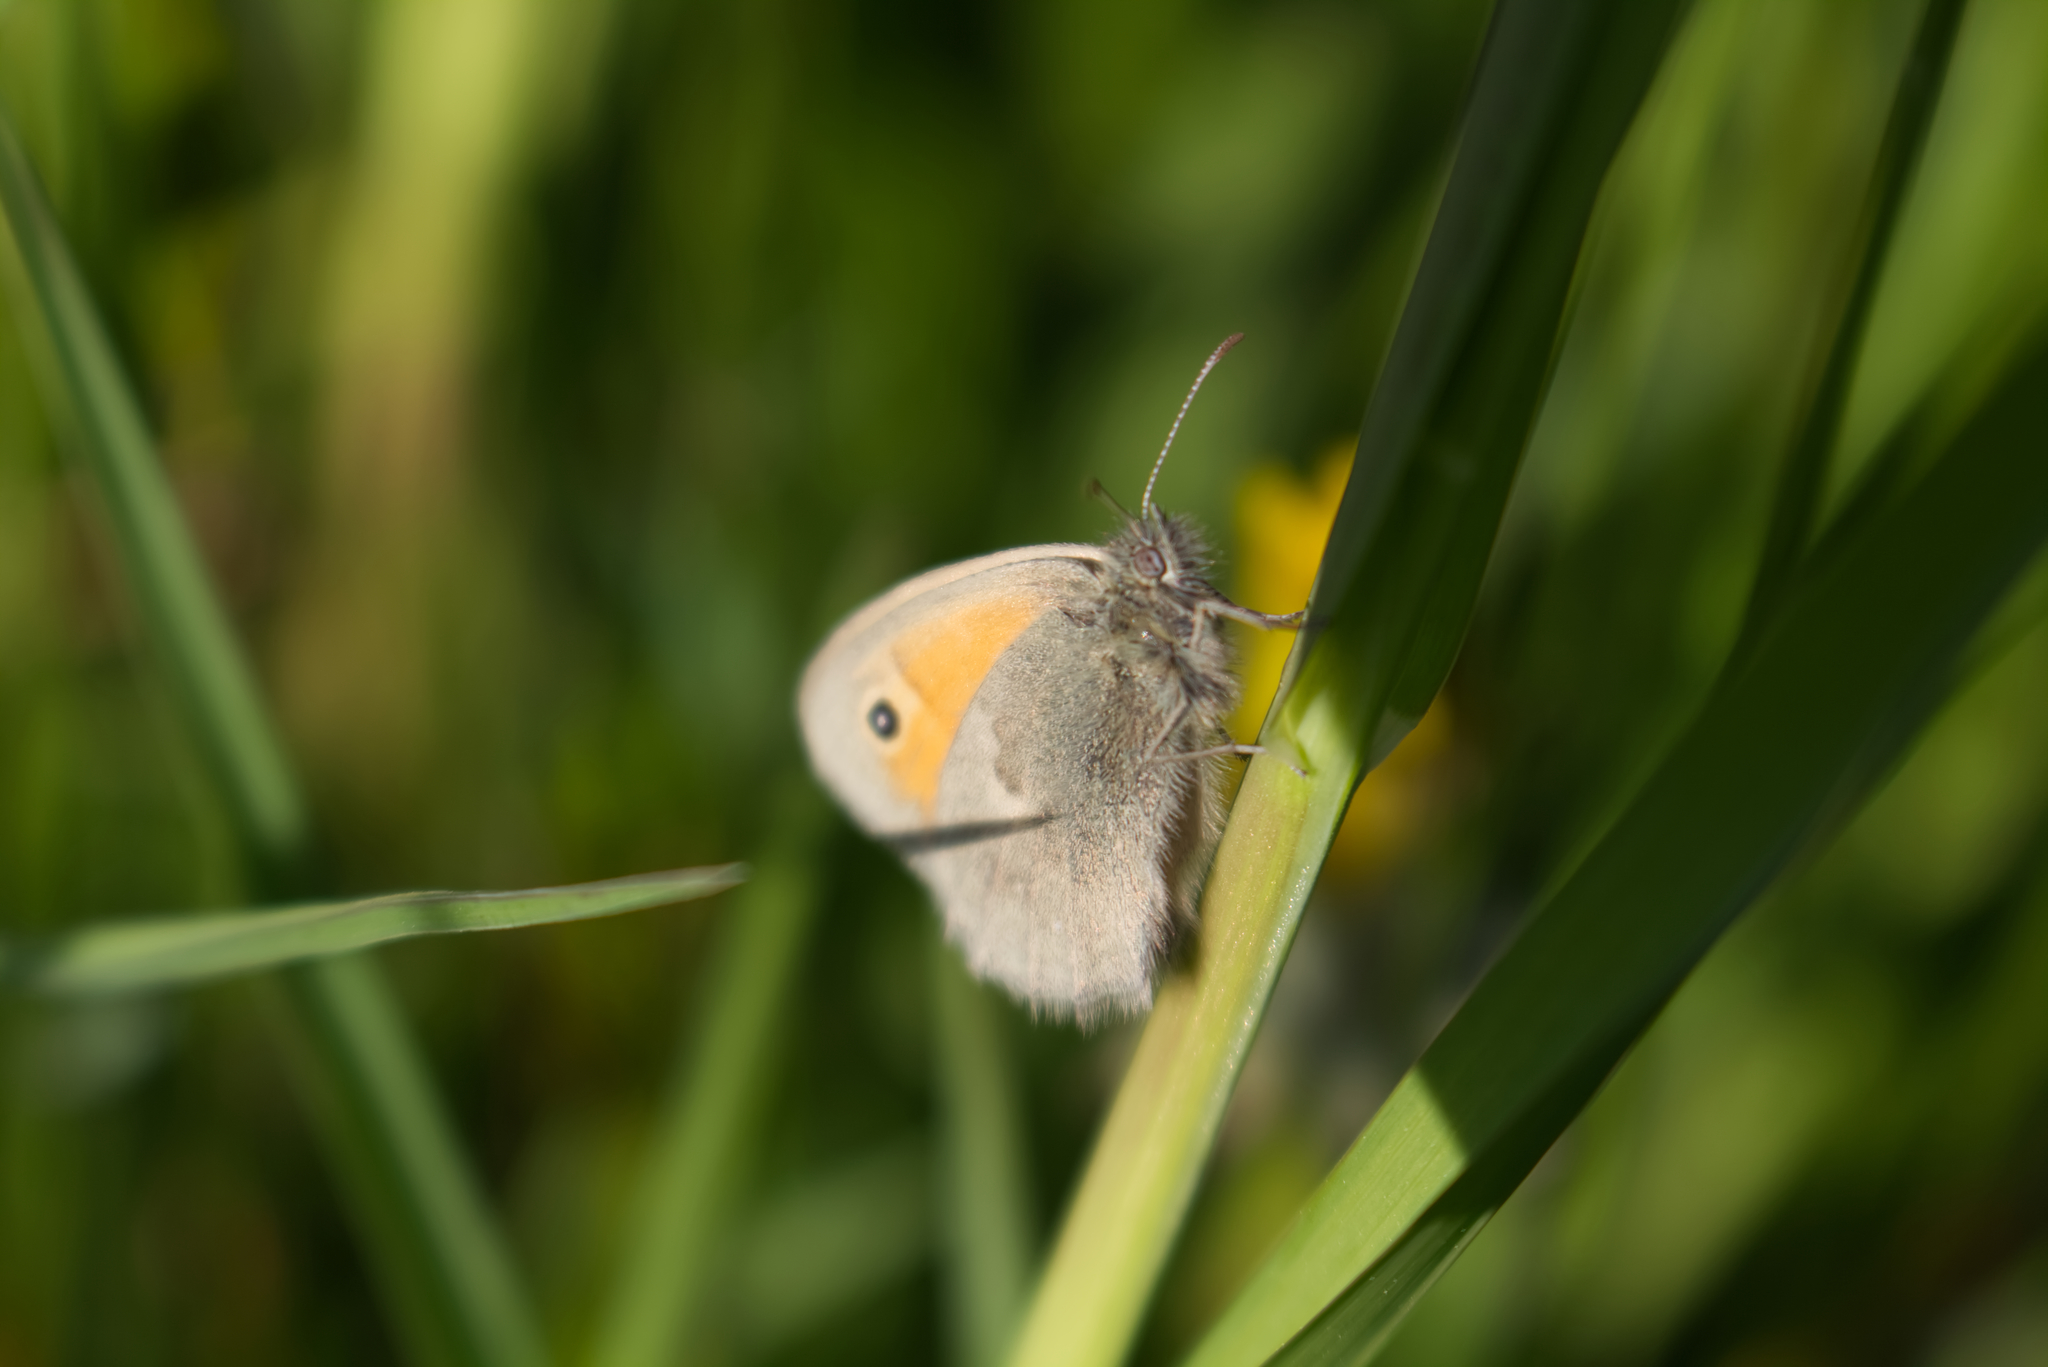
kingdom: Animalia
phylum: Arthropoda
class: Insecta
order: Lepidoptera
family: Nymphalidae
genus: Coenonympha
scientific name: Coenonympha pamphilus
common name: Small heath
